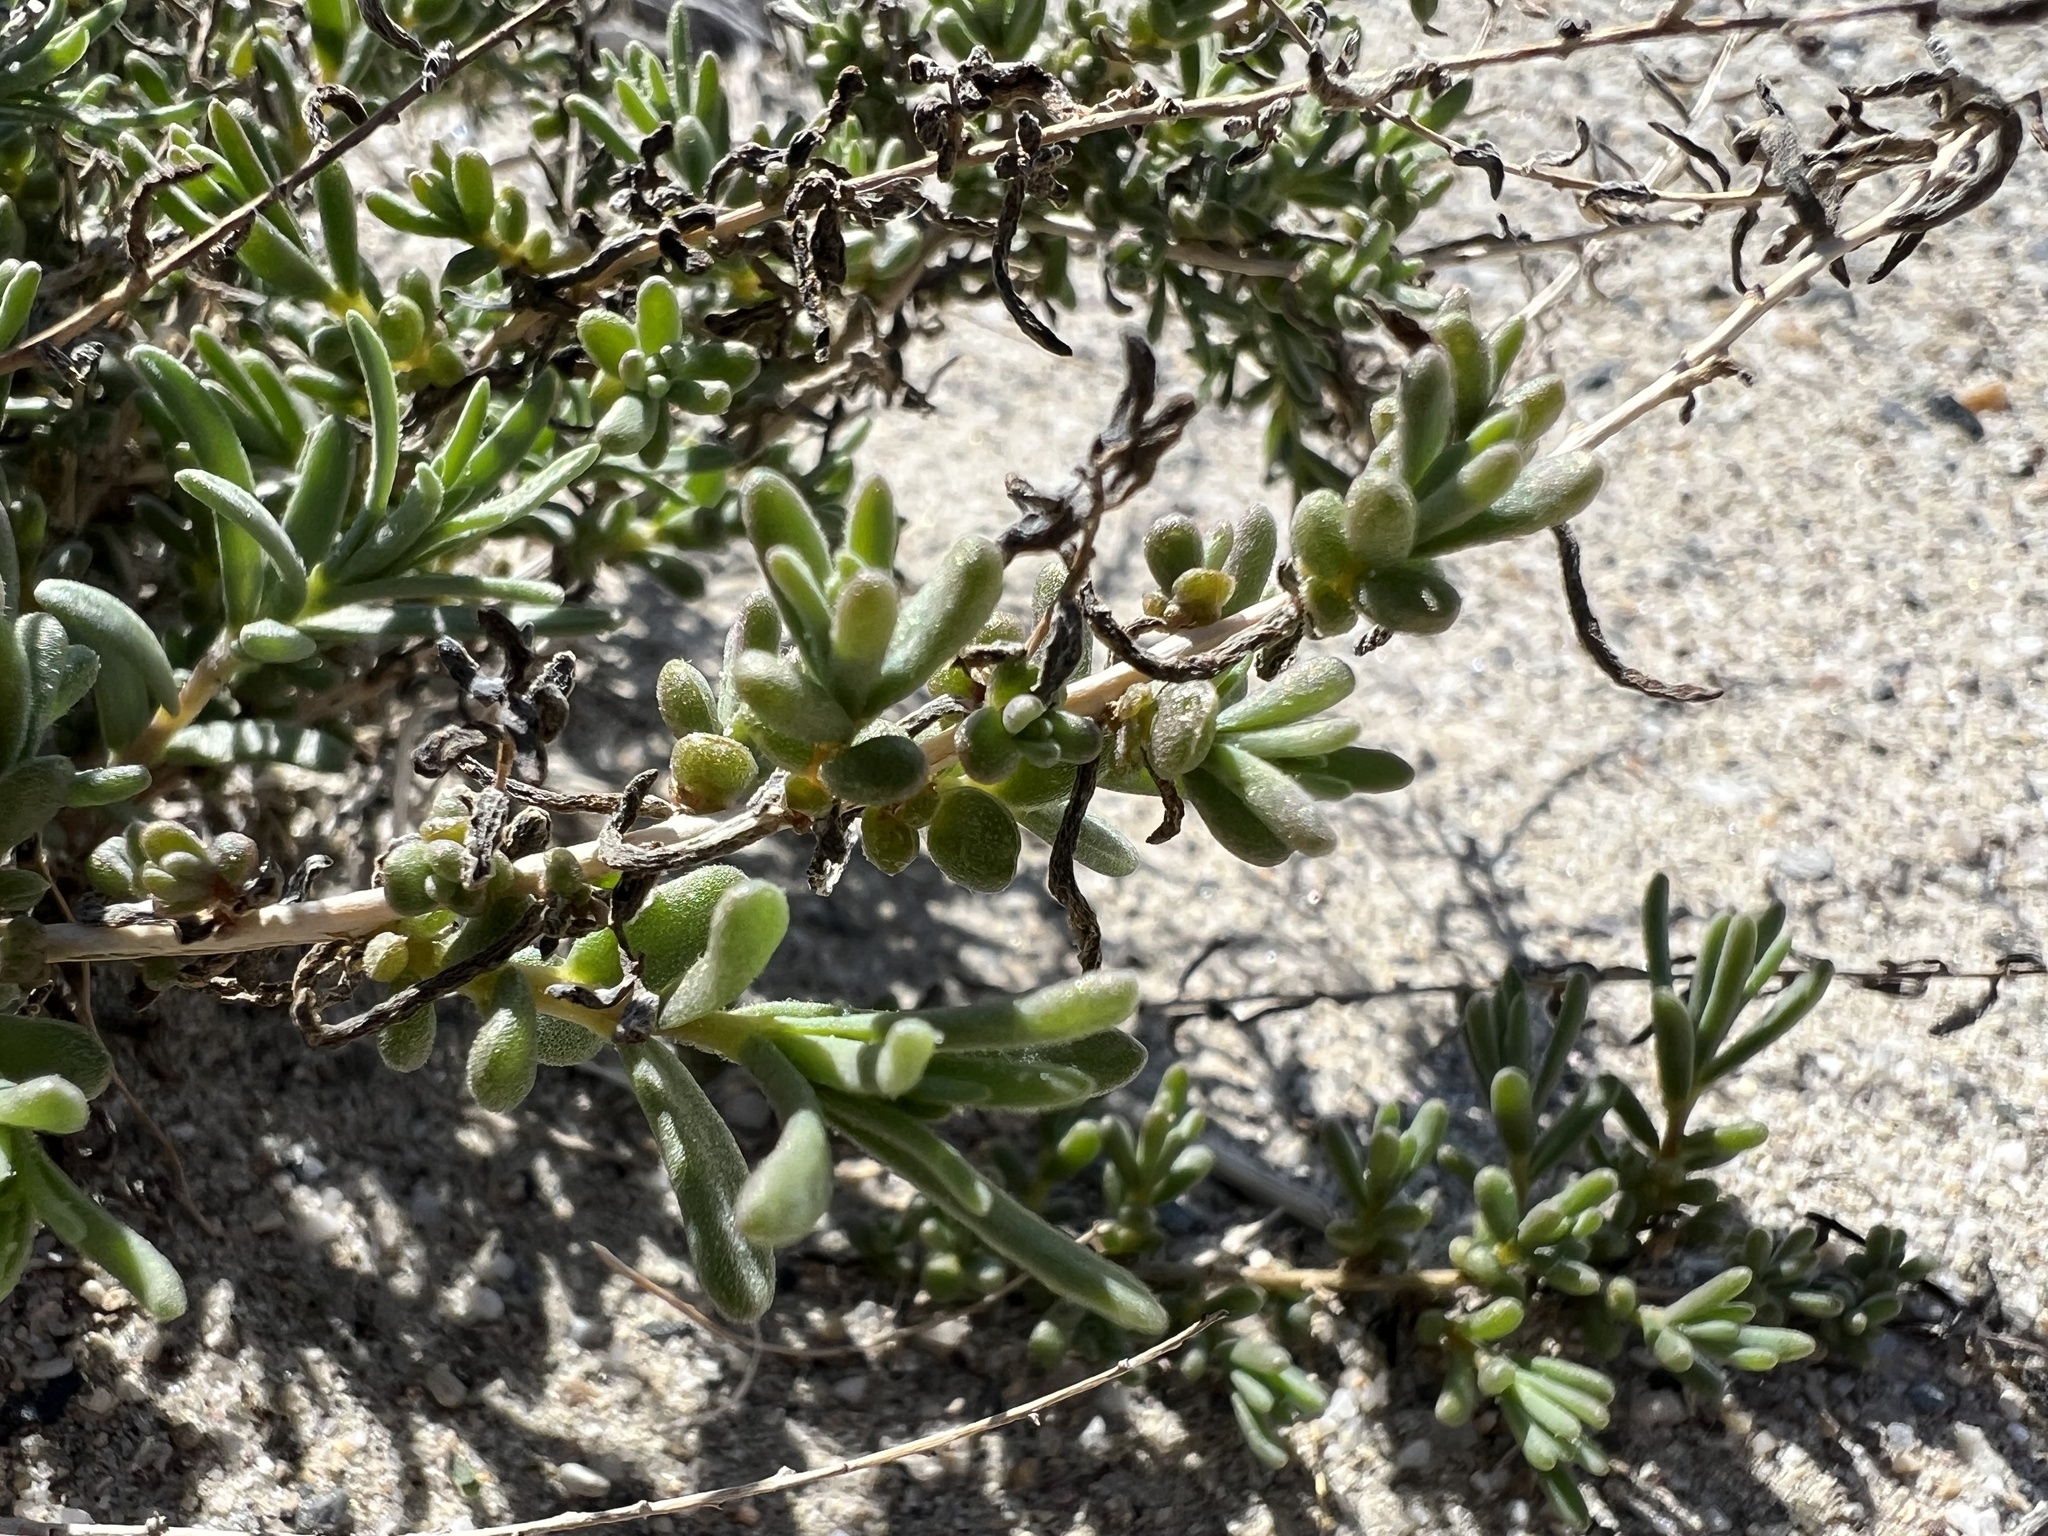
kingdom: Plantae
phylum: Tracheophyta
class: Magnoliopsida
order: Caryophyllales
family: Amaranthaceae
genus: Suaeda
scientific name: Suaeda nigra
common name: Bush seepweed
